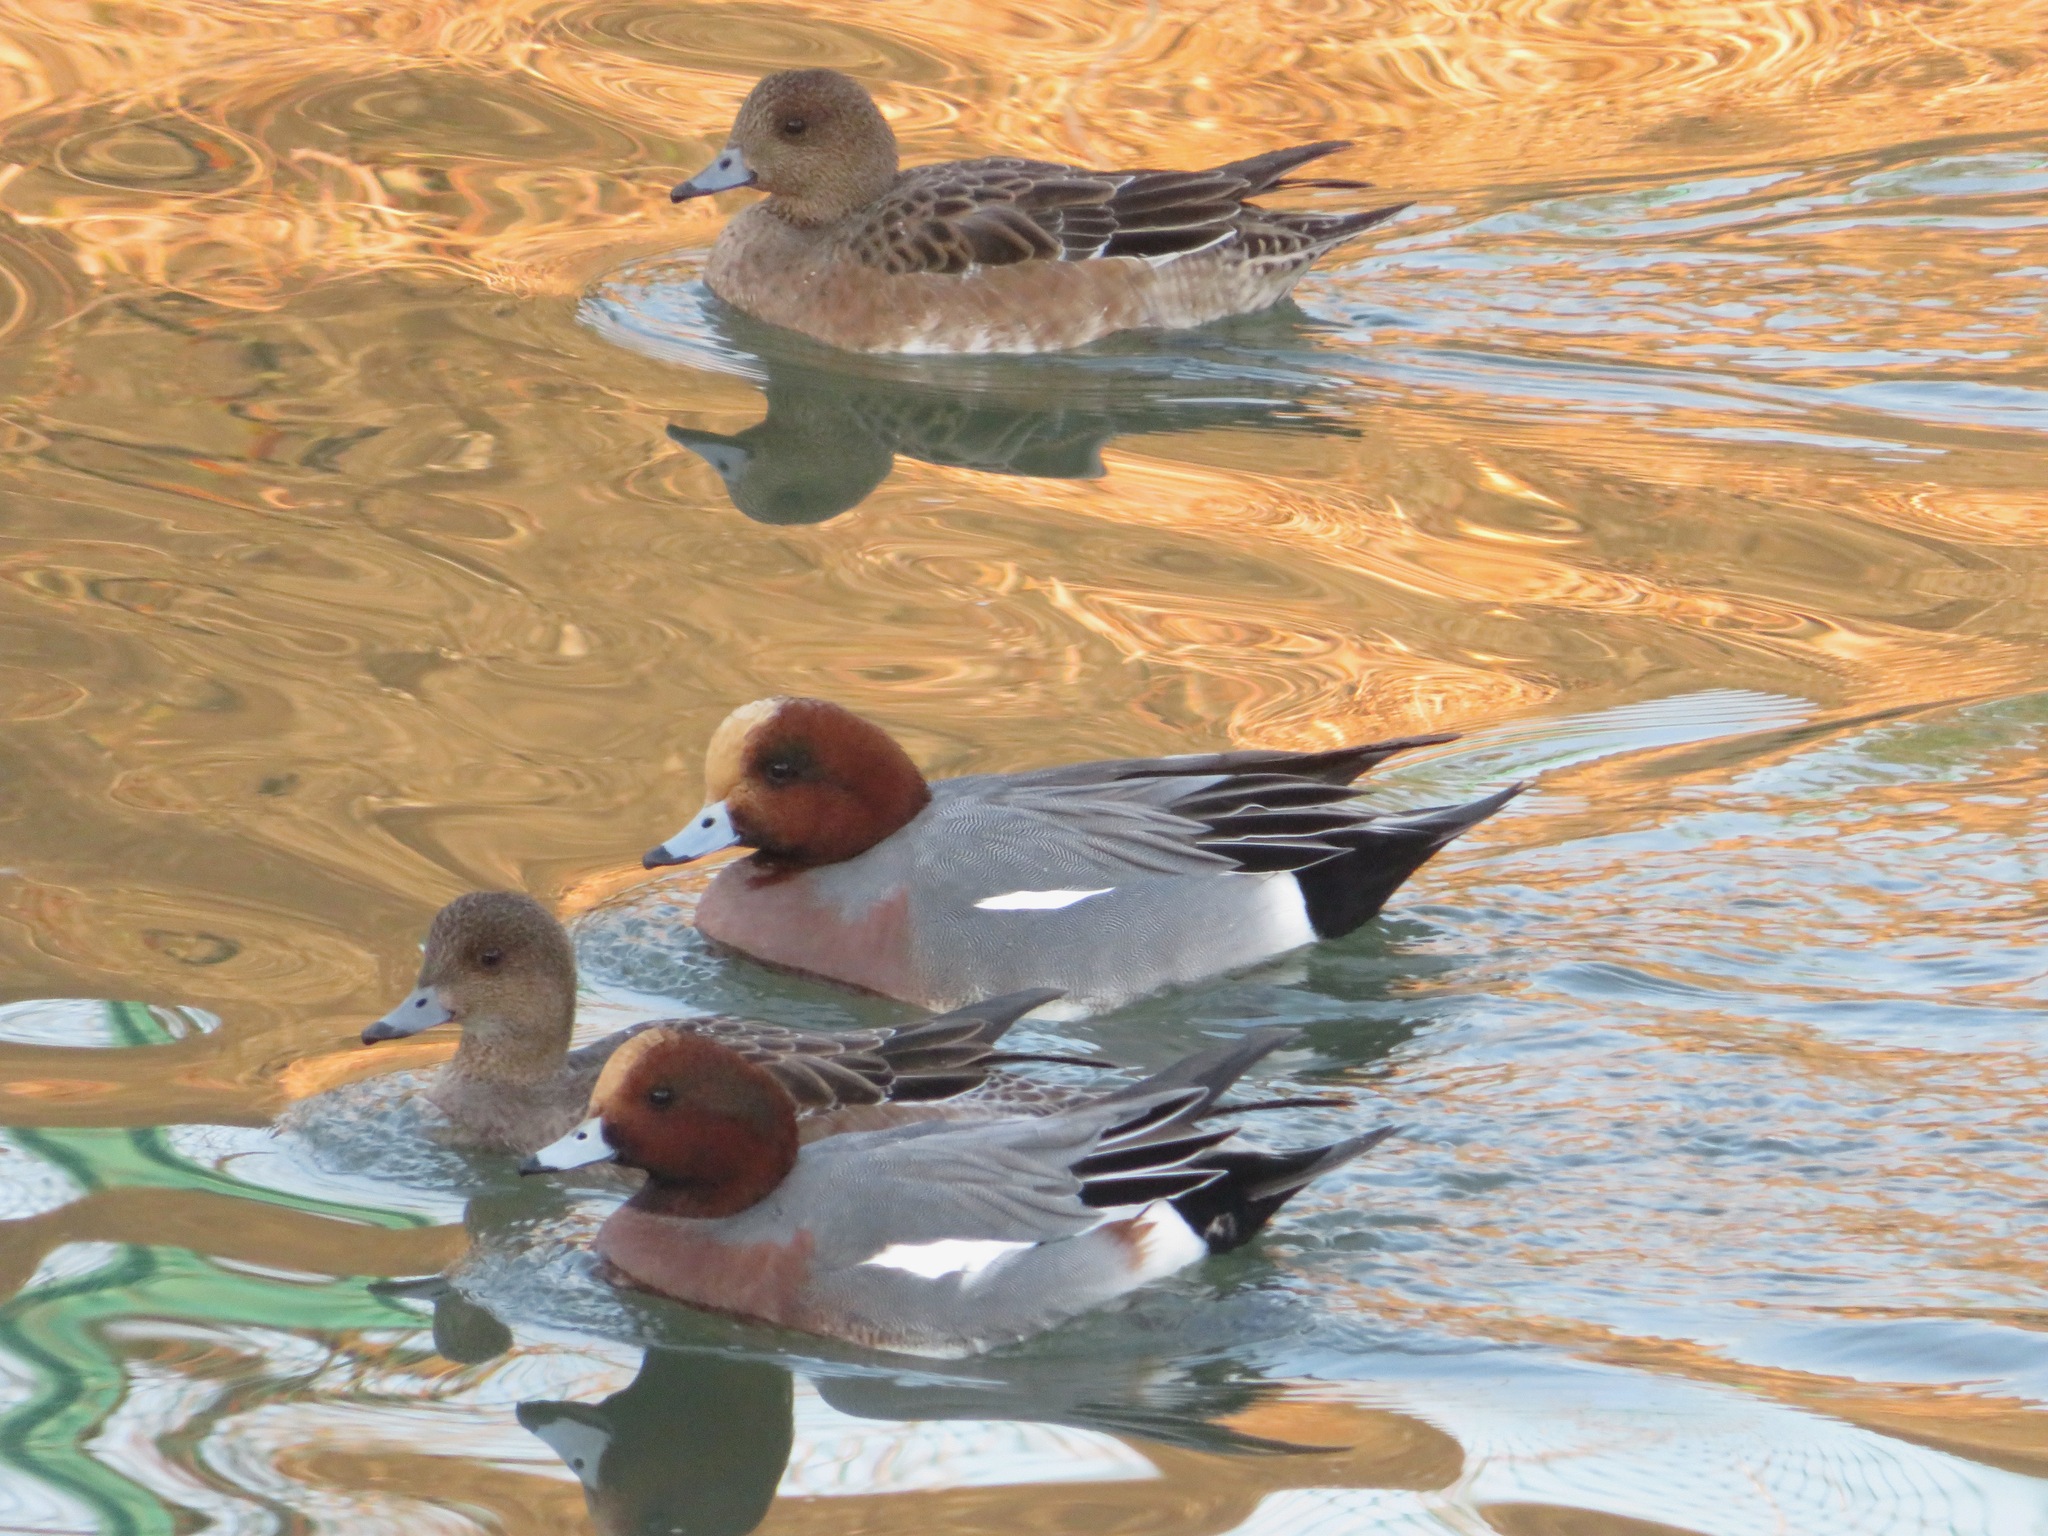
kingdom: Animalia
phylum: Chordata
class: Aves
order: Anseriformes
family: Anatidae
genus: Mareca
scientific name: Mareca penelope
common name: Eurasian wigeon
